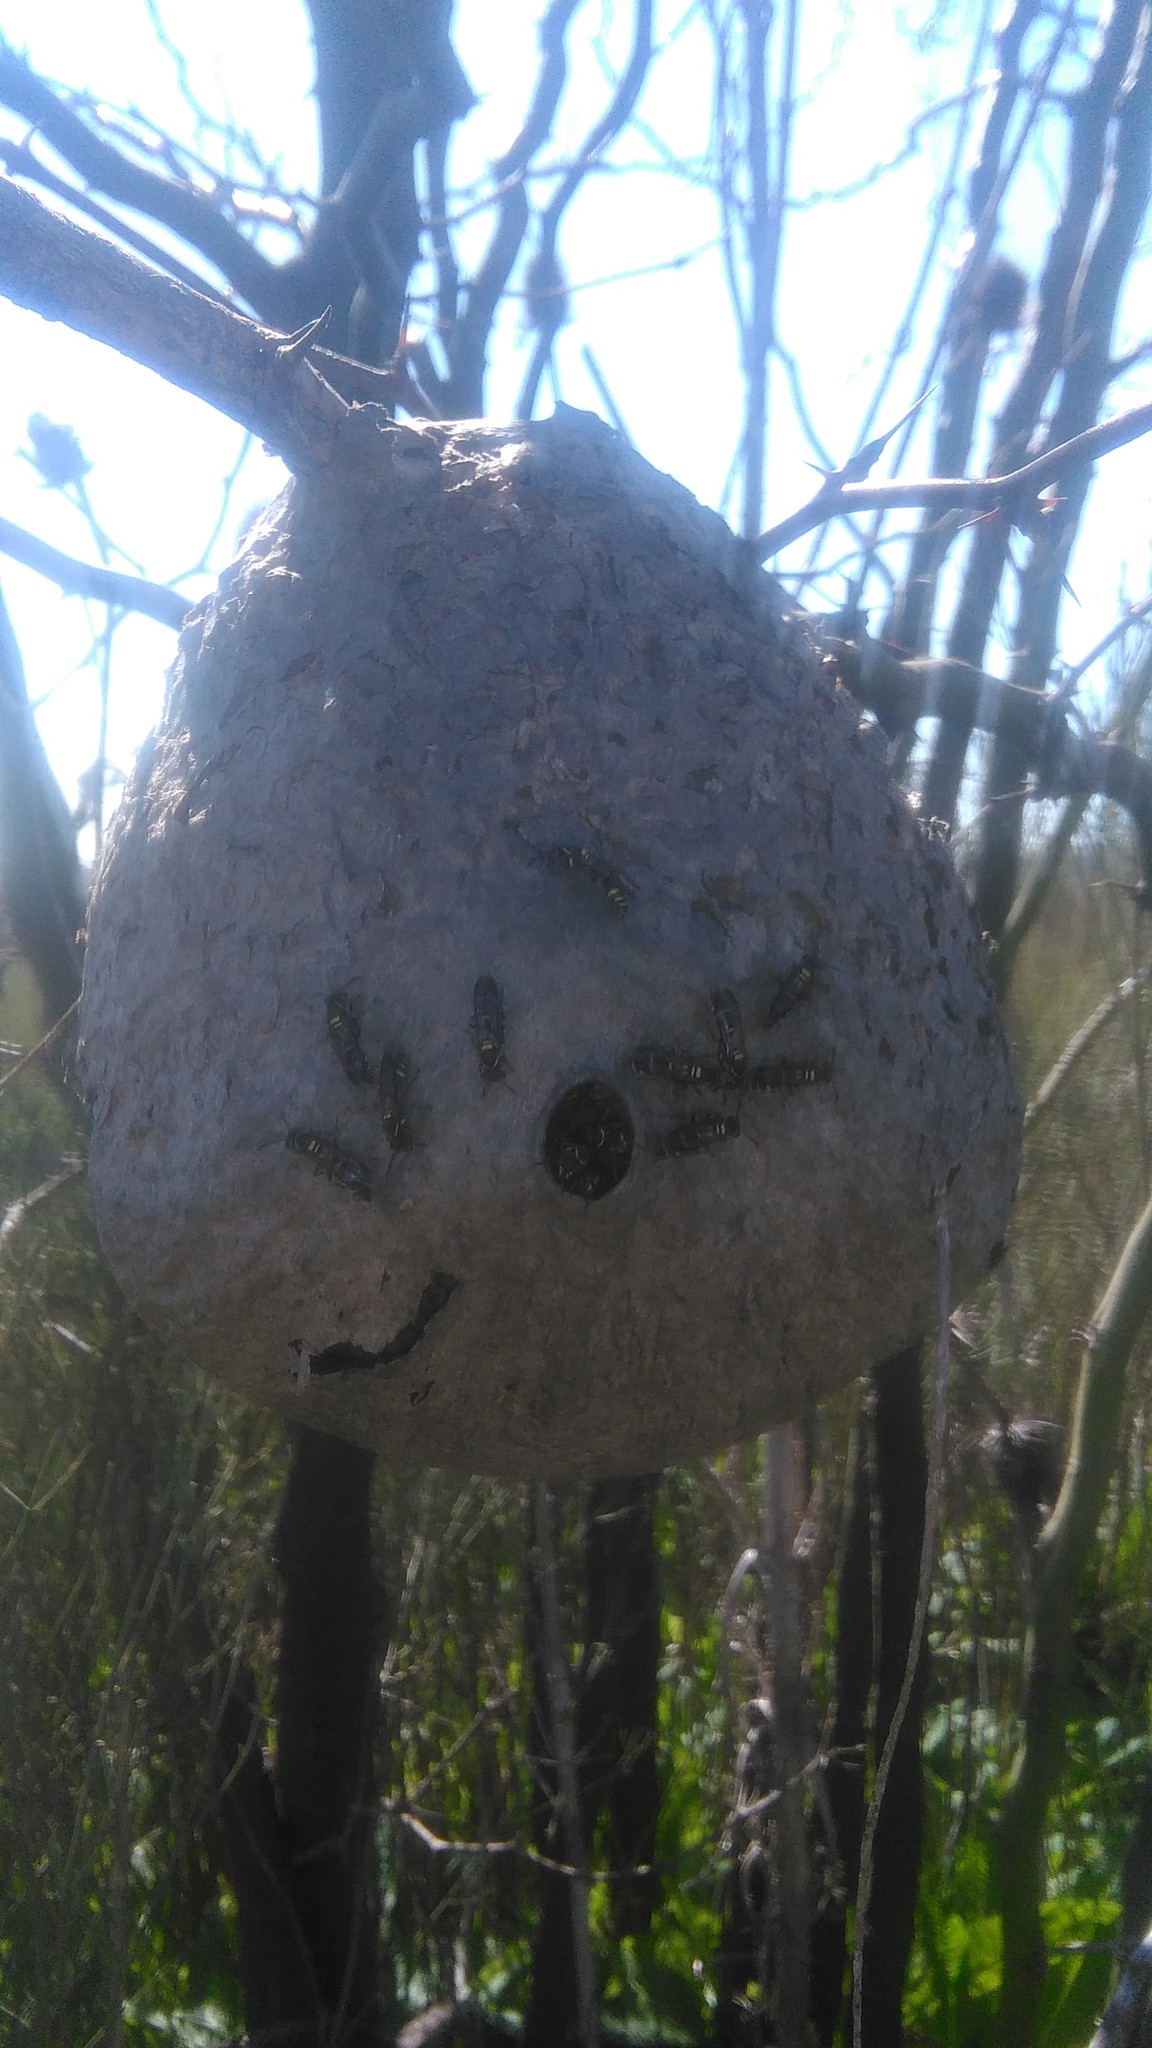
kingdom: Animalia
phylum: Arthropoda
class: Insecta
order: Hymenoptera
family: Eumenidae
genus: Polybia
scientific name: Polybia occidentalis
